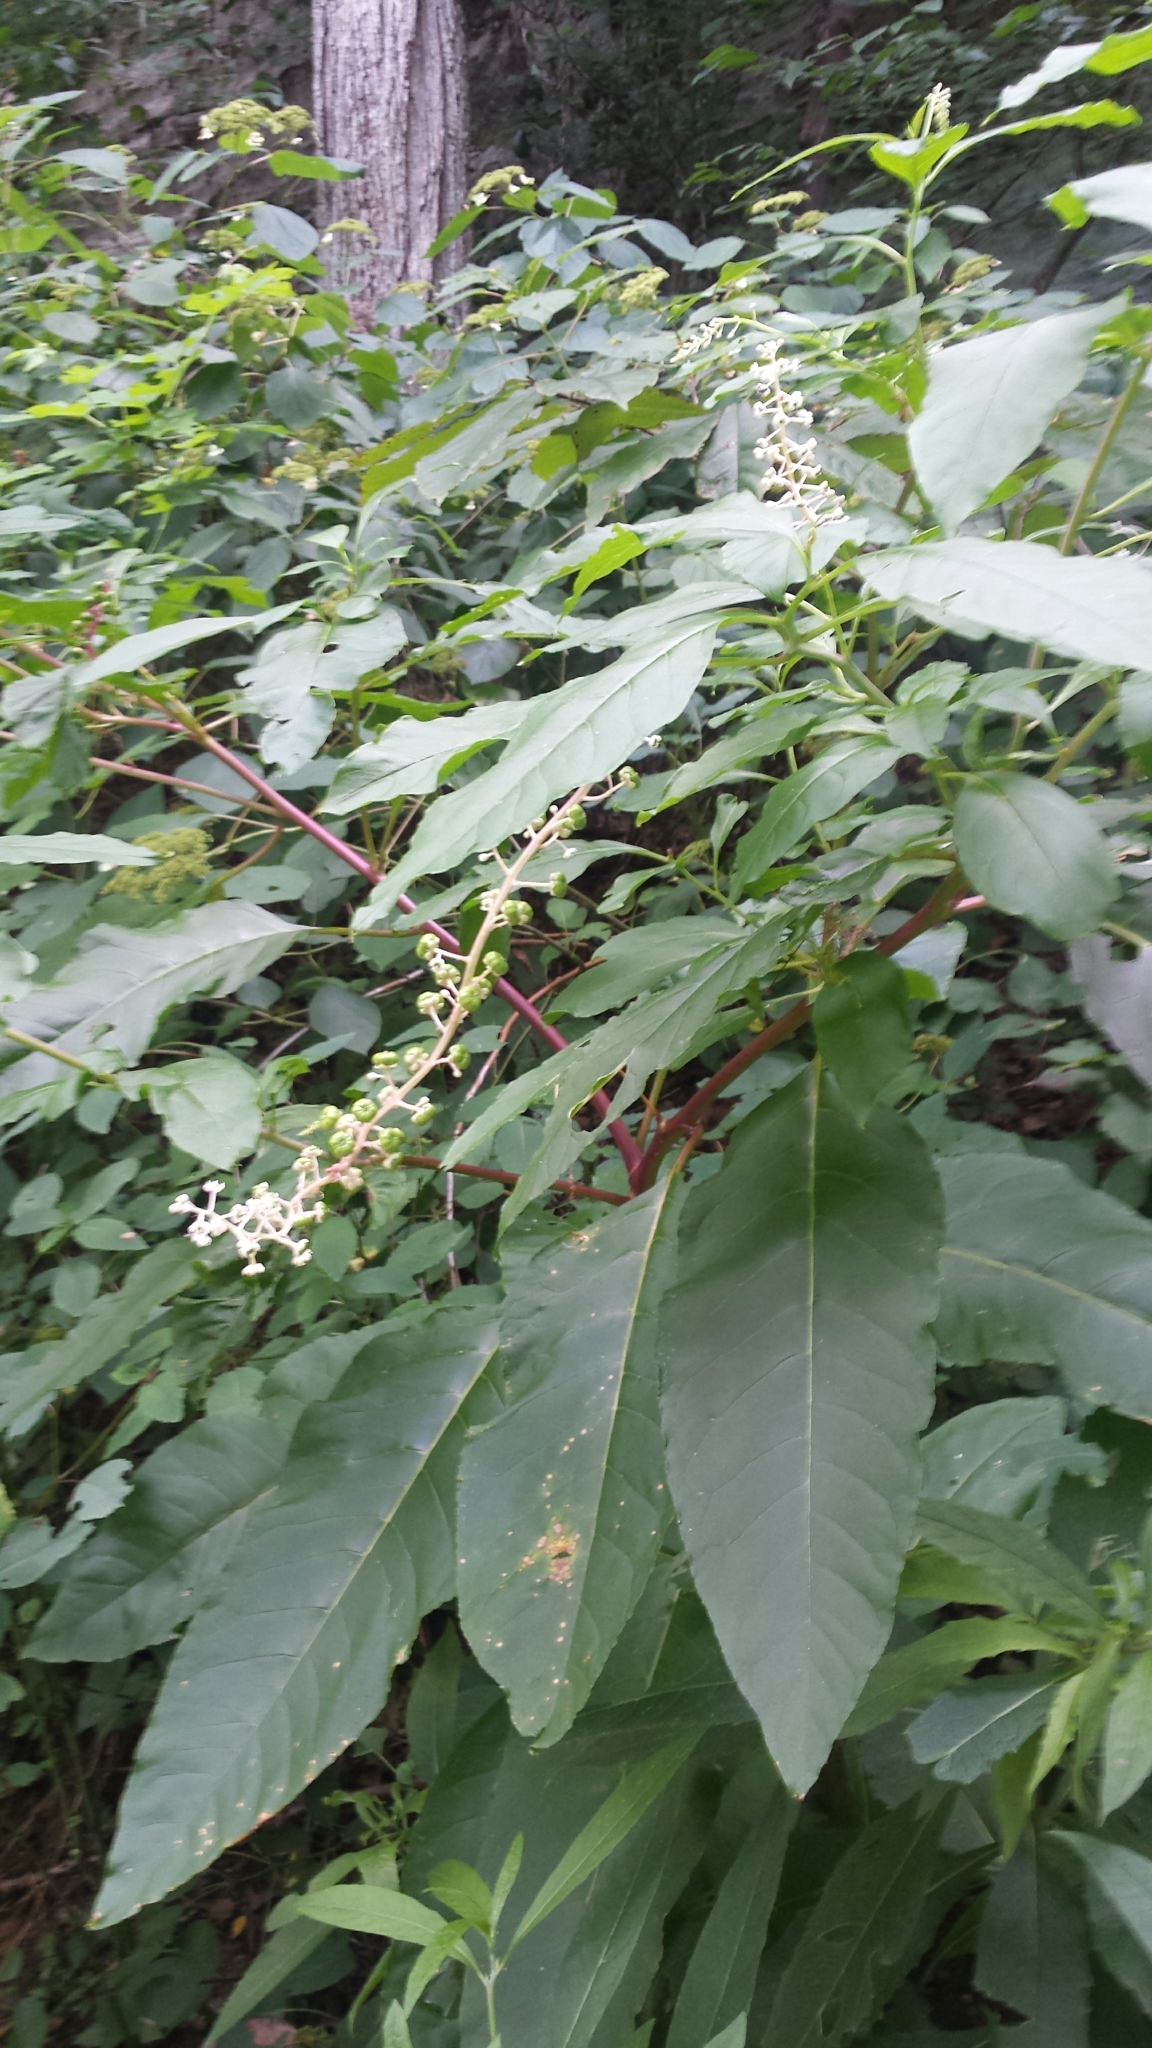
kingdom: Plantae
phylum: Tracheophyta
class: Magnoliopsida
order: Caryophyllales
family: Phytolaccaceae
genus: Phytolacca
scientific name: Phytolacca americana
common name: American pokeweed
